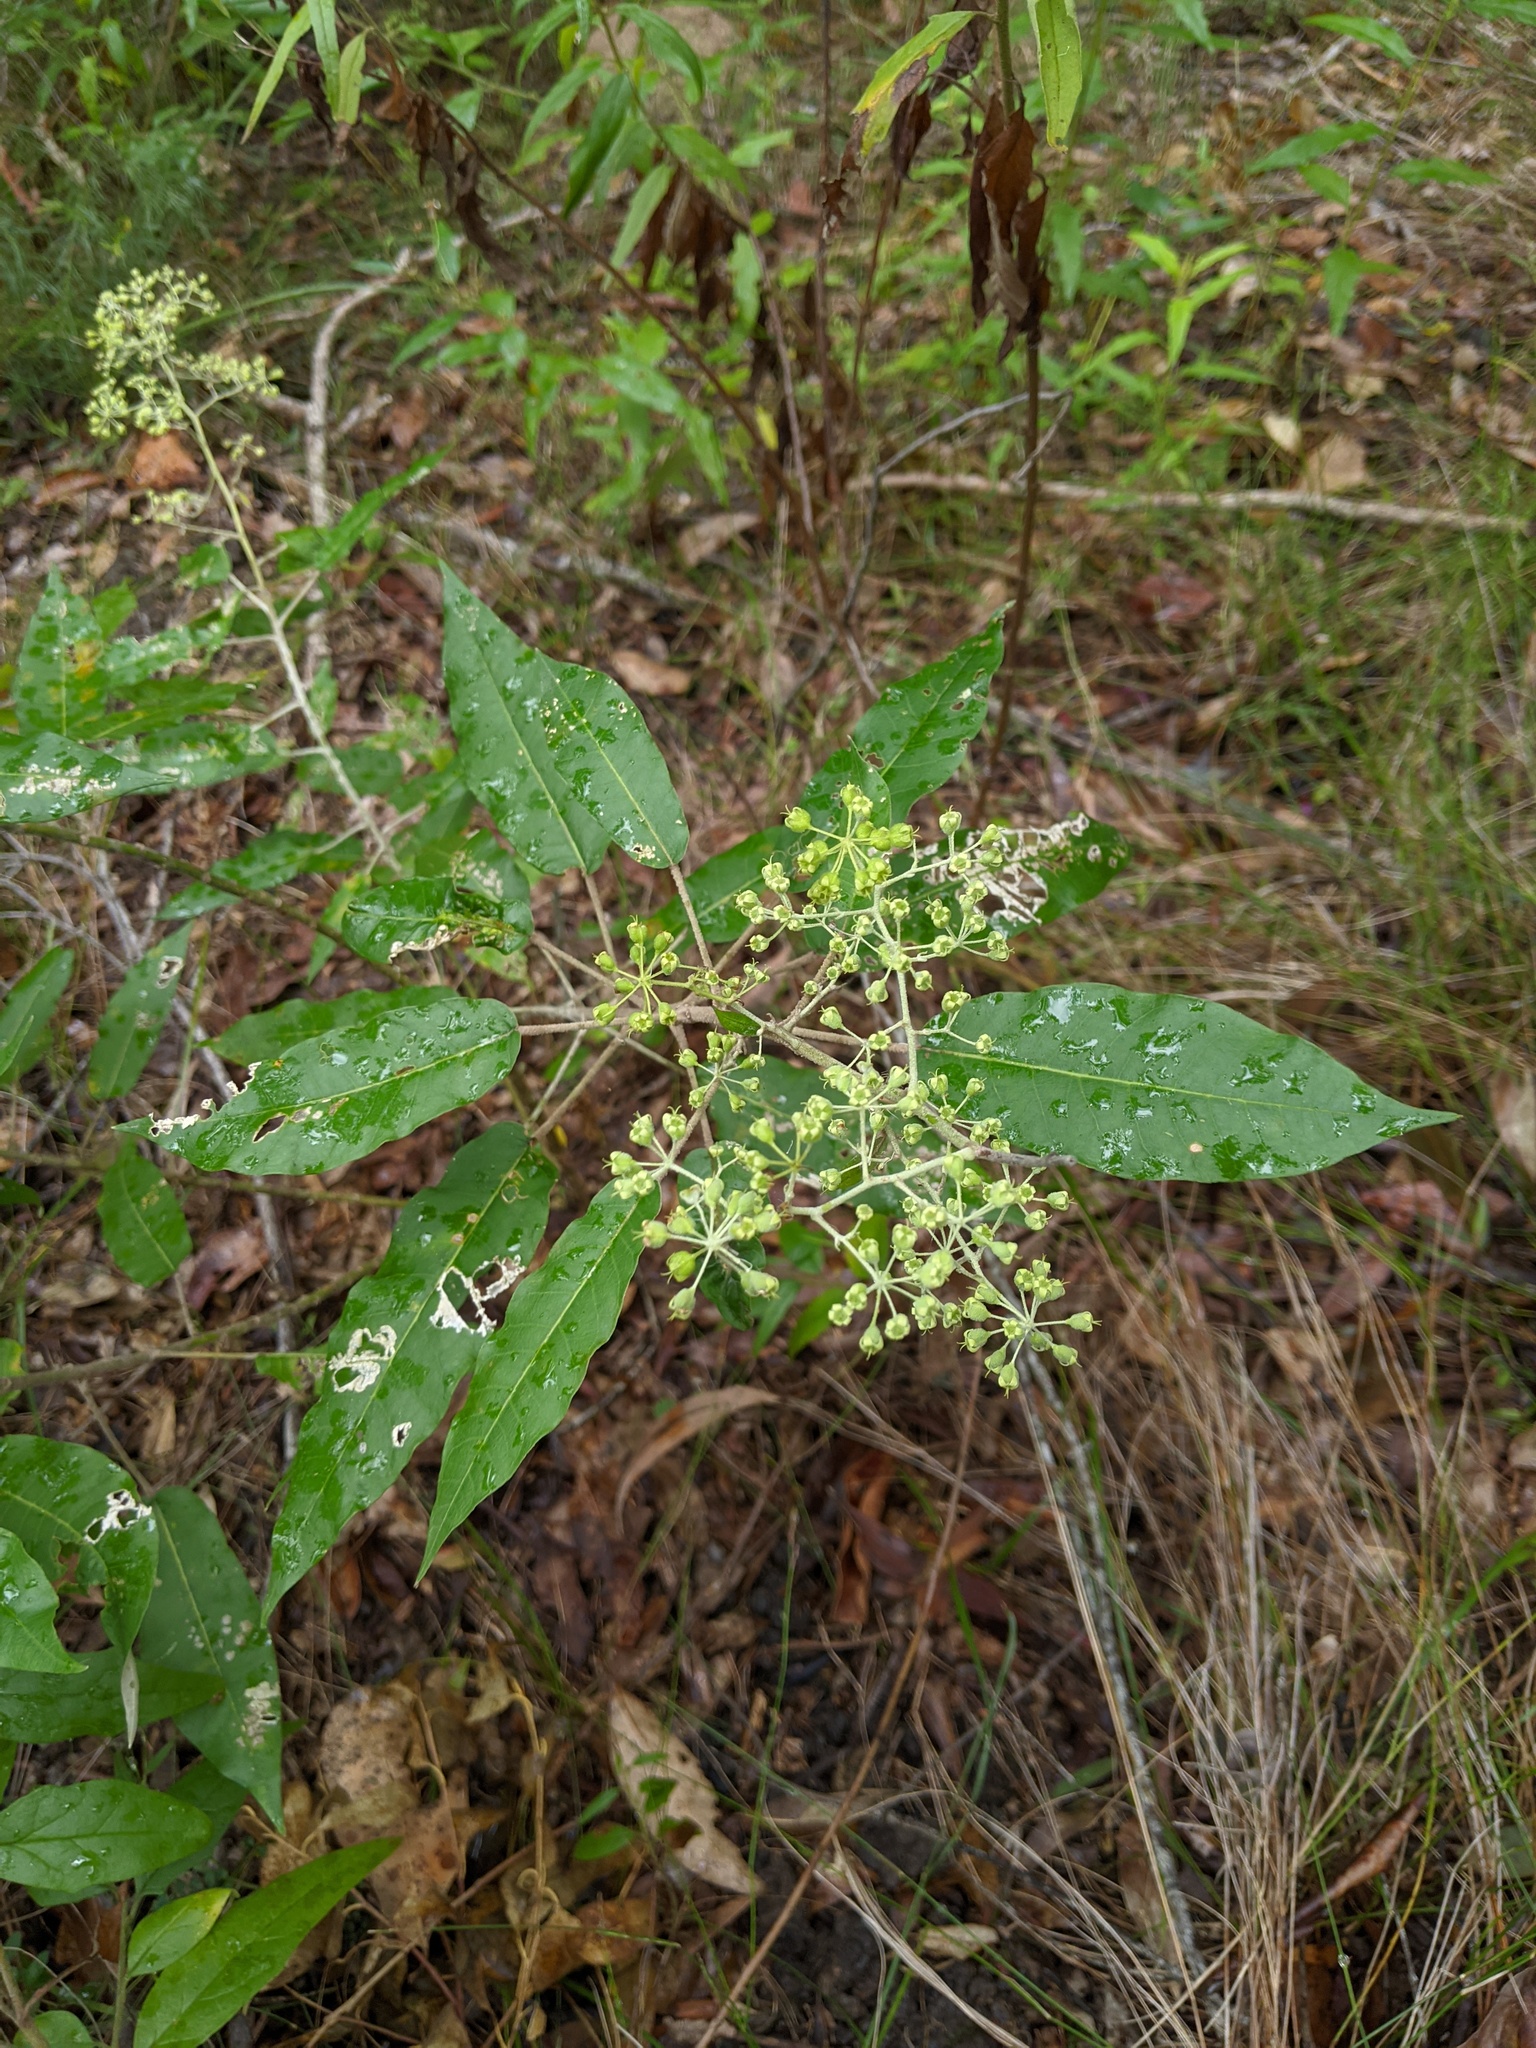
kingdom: Plantae
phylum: Tracheophyta
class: Magnoliopsida
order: Apiales
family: Araliaceae
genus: Astrotricha
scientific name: Astrotricha latifolia
